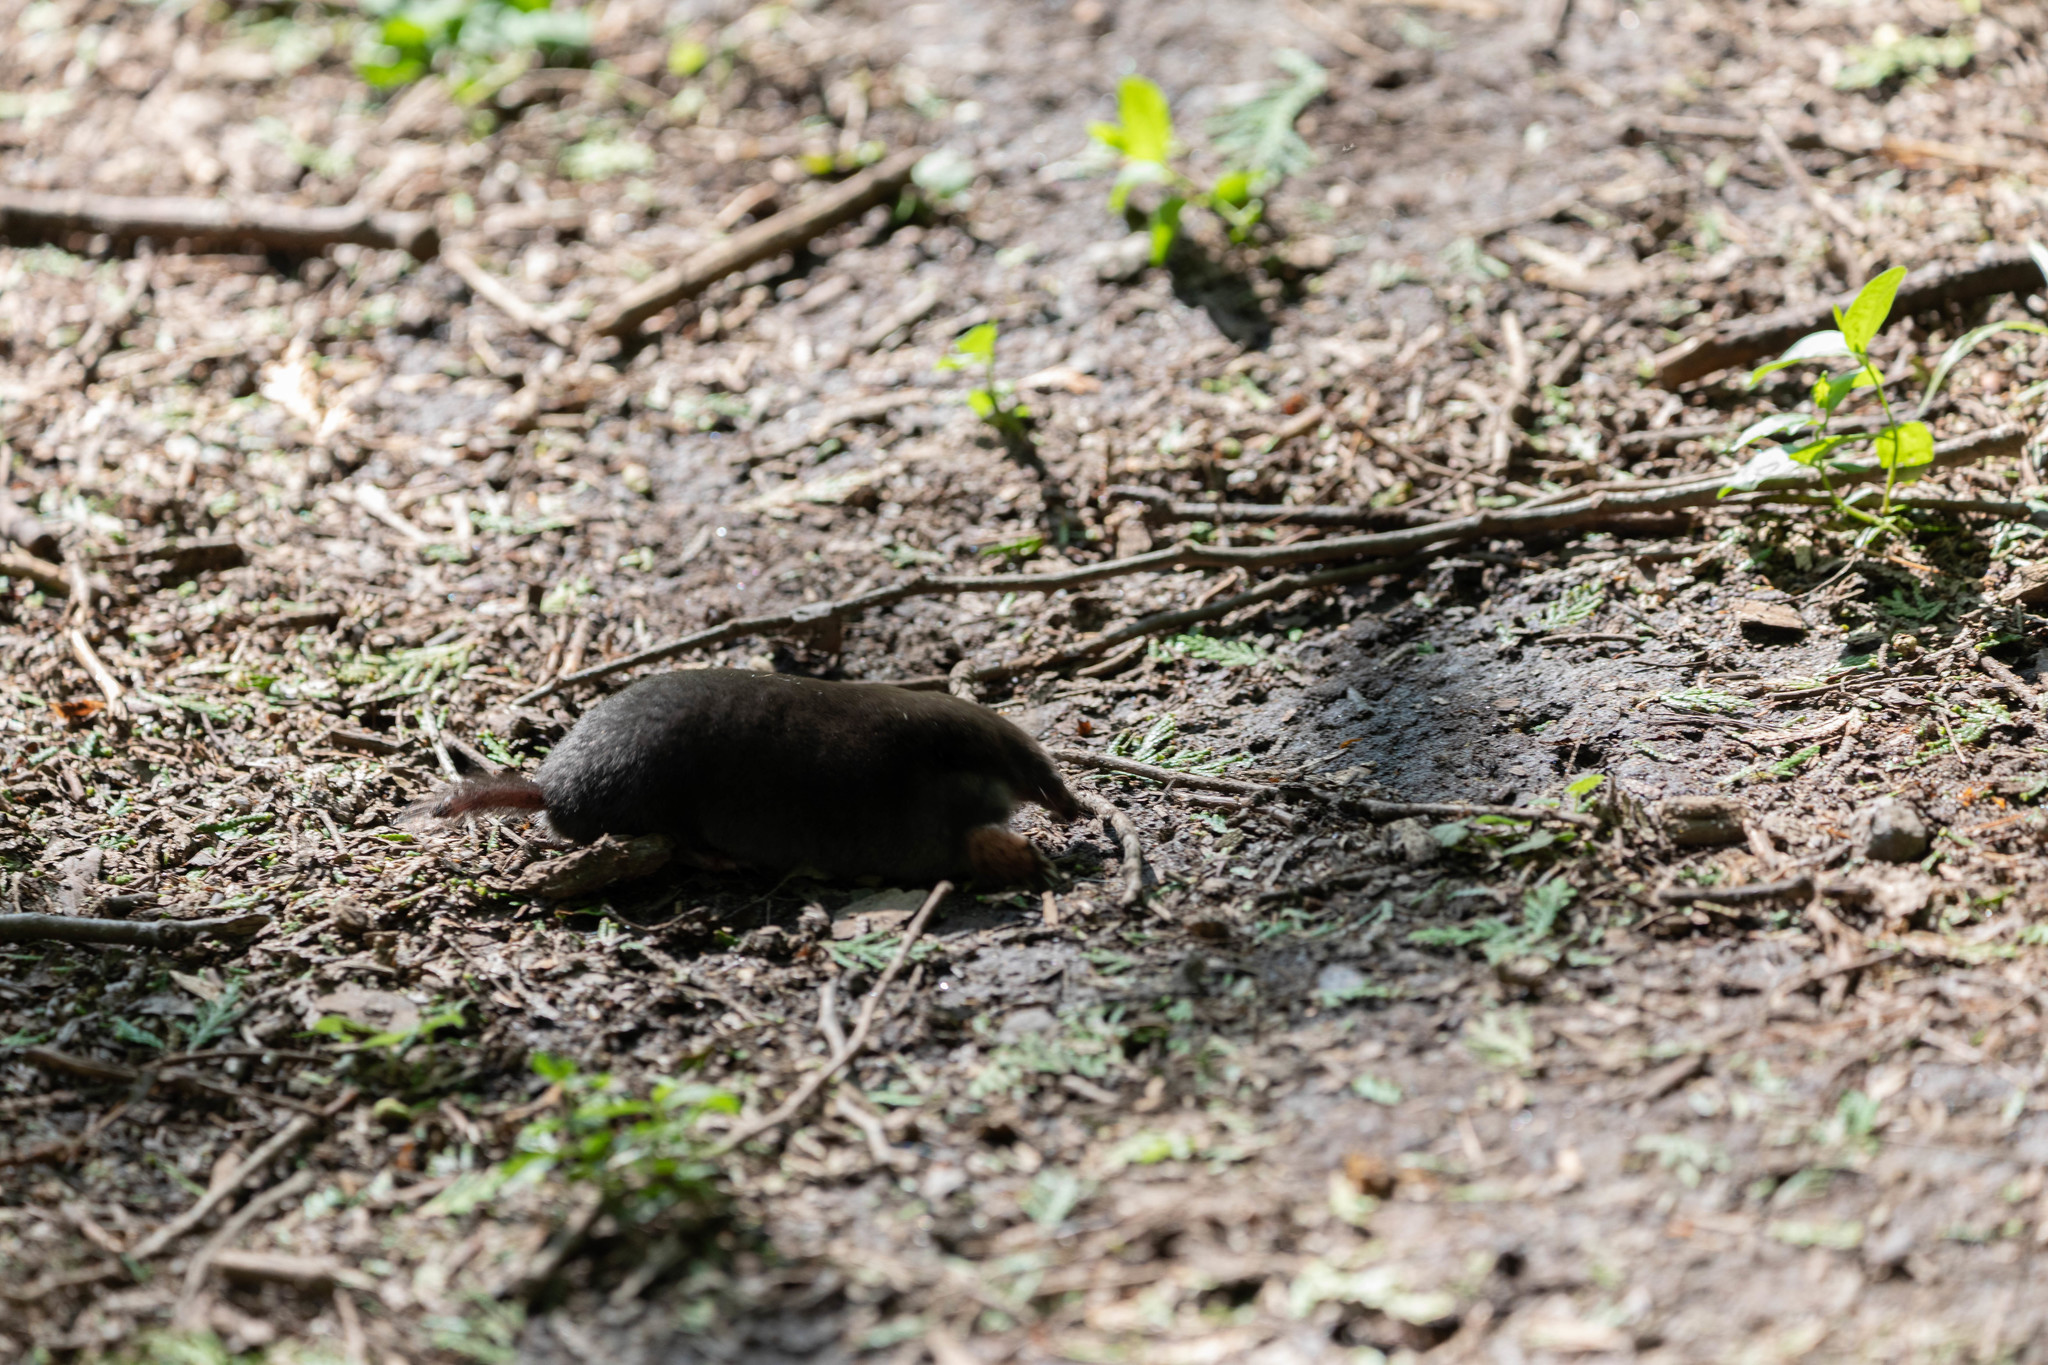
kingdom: Animalia
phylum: Chordata
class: Mammalia
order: Soricomorpha
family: Talpidae
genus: Parascalops
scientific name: Parascalops breweri
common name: Hairy-tailed mole
